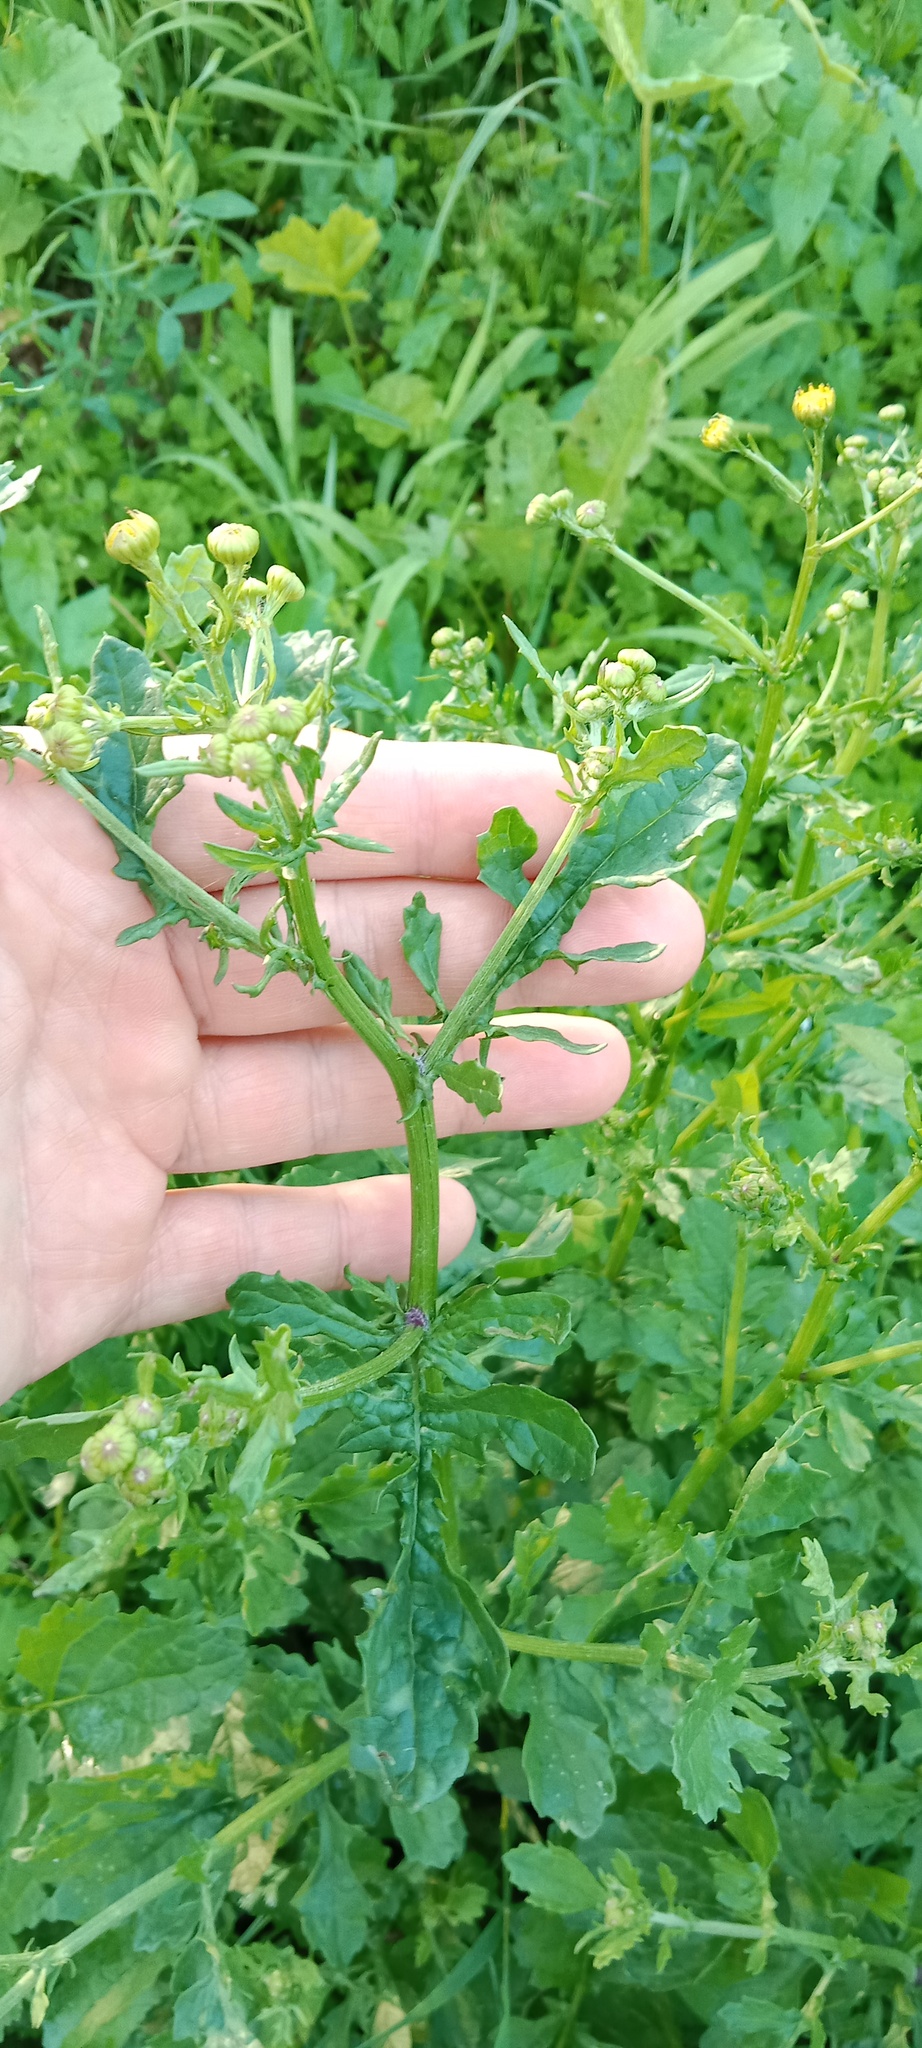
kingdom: Plantae
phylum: Tracheophyta
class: Magnoliopsida
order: Asterales
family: Asteraceae
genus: Jacobaea
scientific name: Jacobaea vulgaris
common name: Stinking willie
